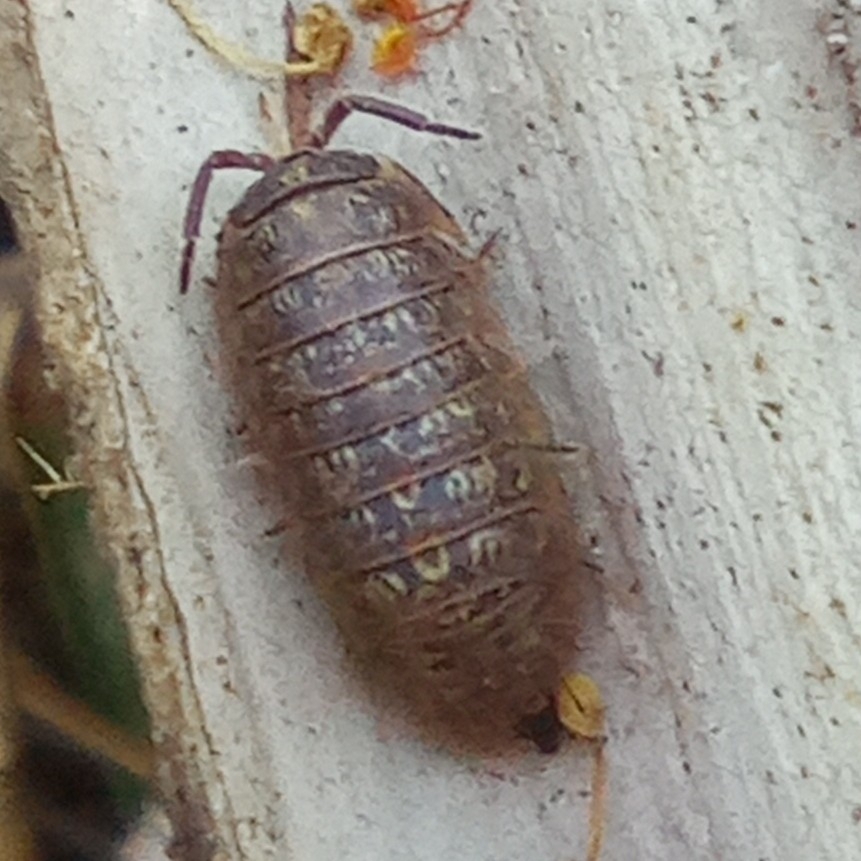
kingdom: Animalia
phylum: Arthropoda
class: Malacostraca
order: Isopoda
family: Armadillidiidae
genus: Armadillidium
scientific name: Armadillidium versicolor
